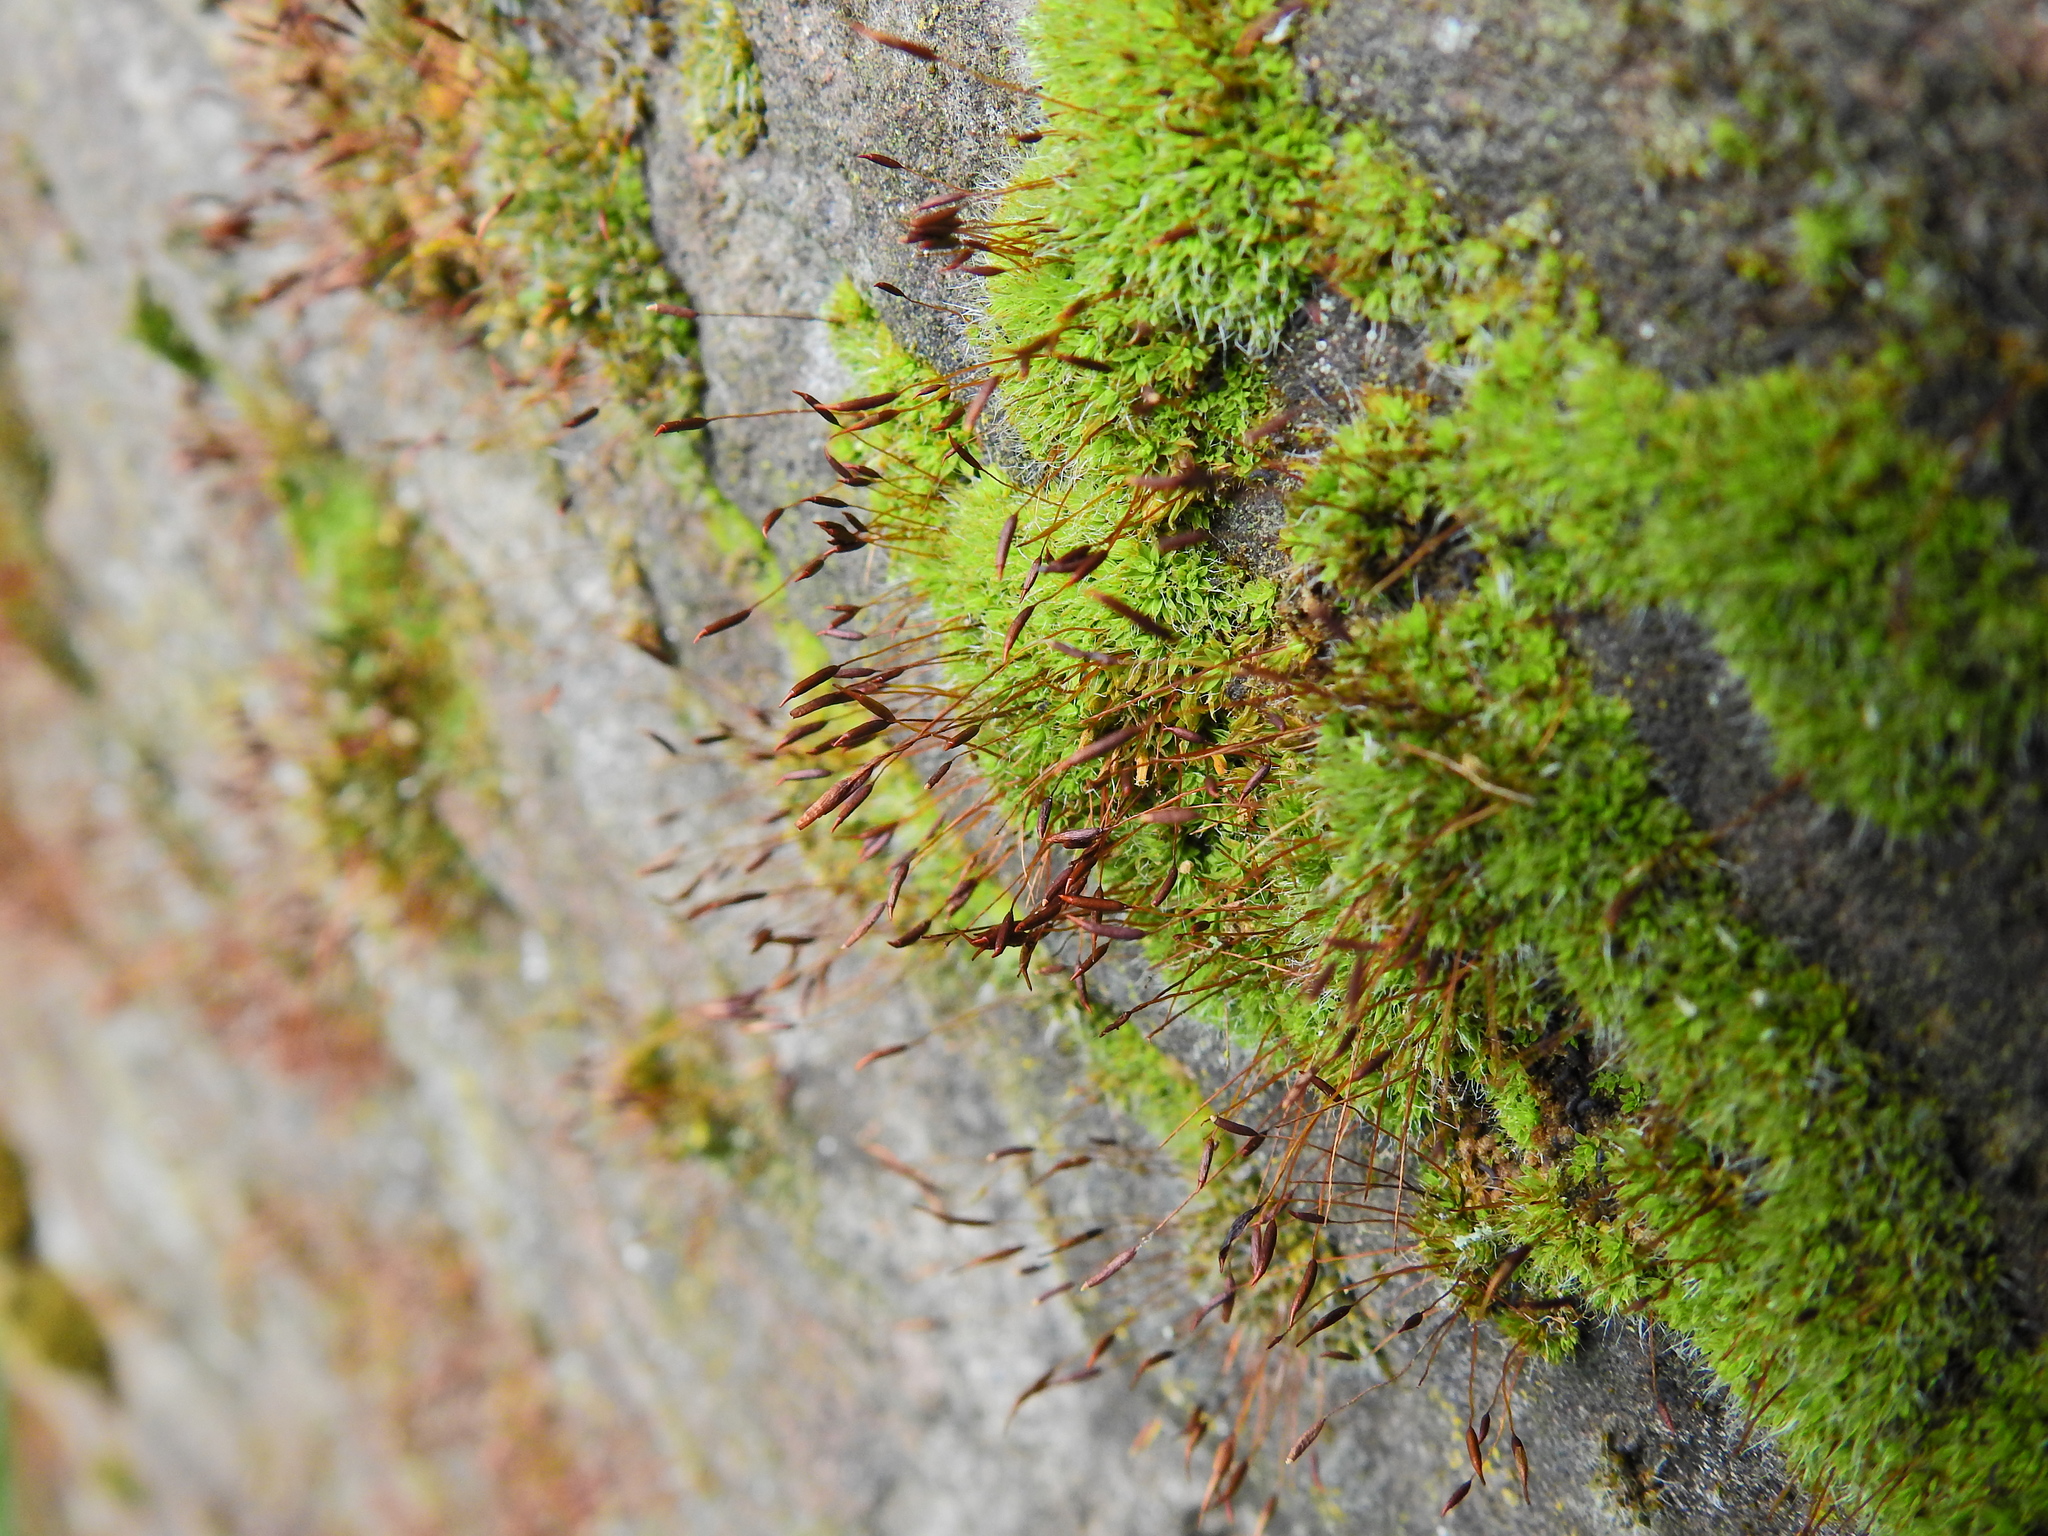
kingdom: Plantae
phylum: Bryophyta
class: Bryopsida
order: Pottiales
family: Pottiaceae
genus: Tortula
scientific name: Tortula muralis
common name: Wall screw-moss
